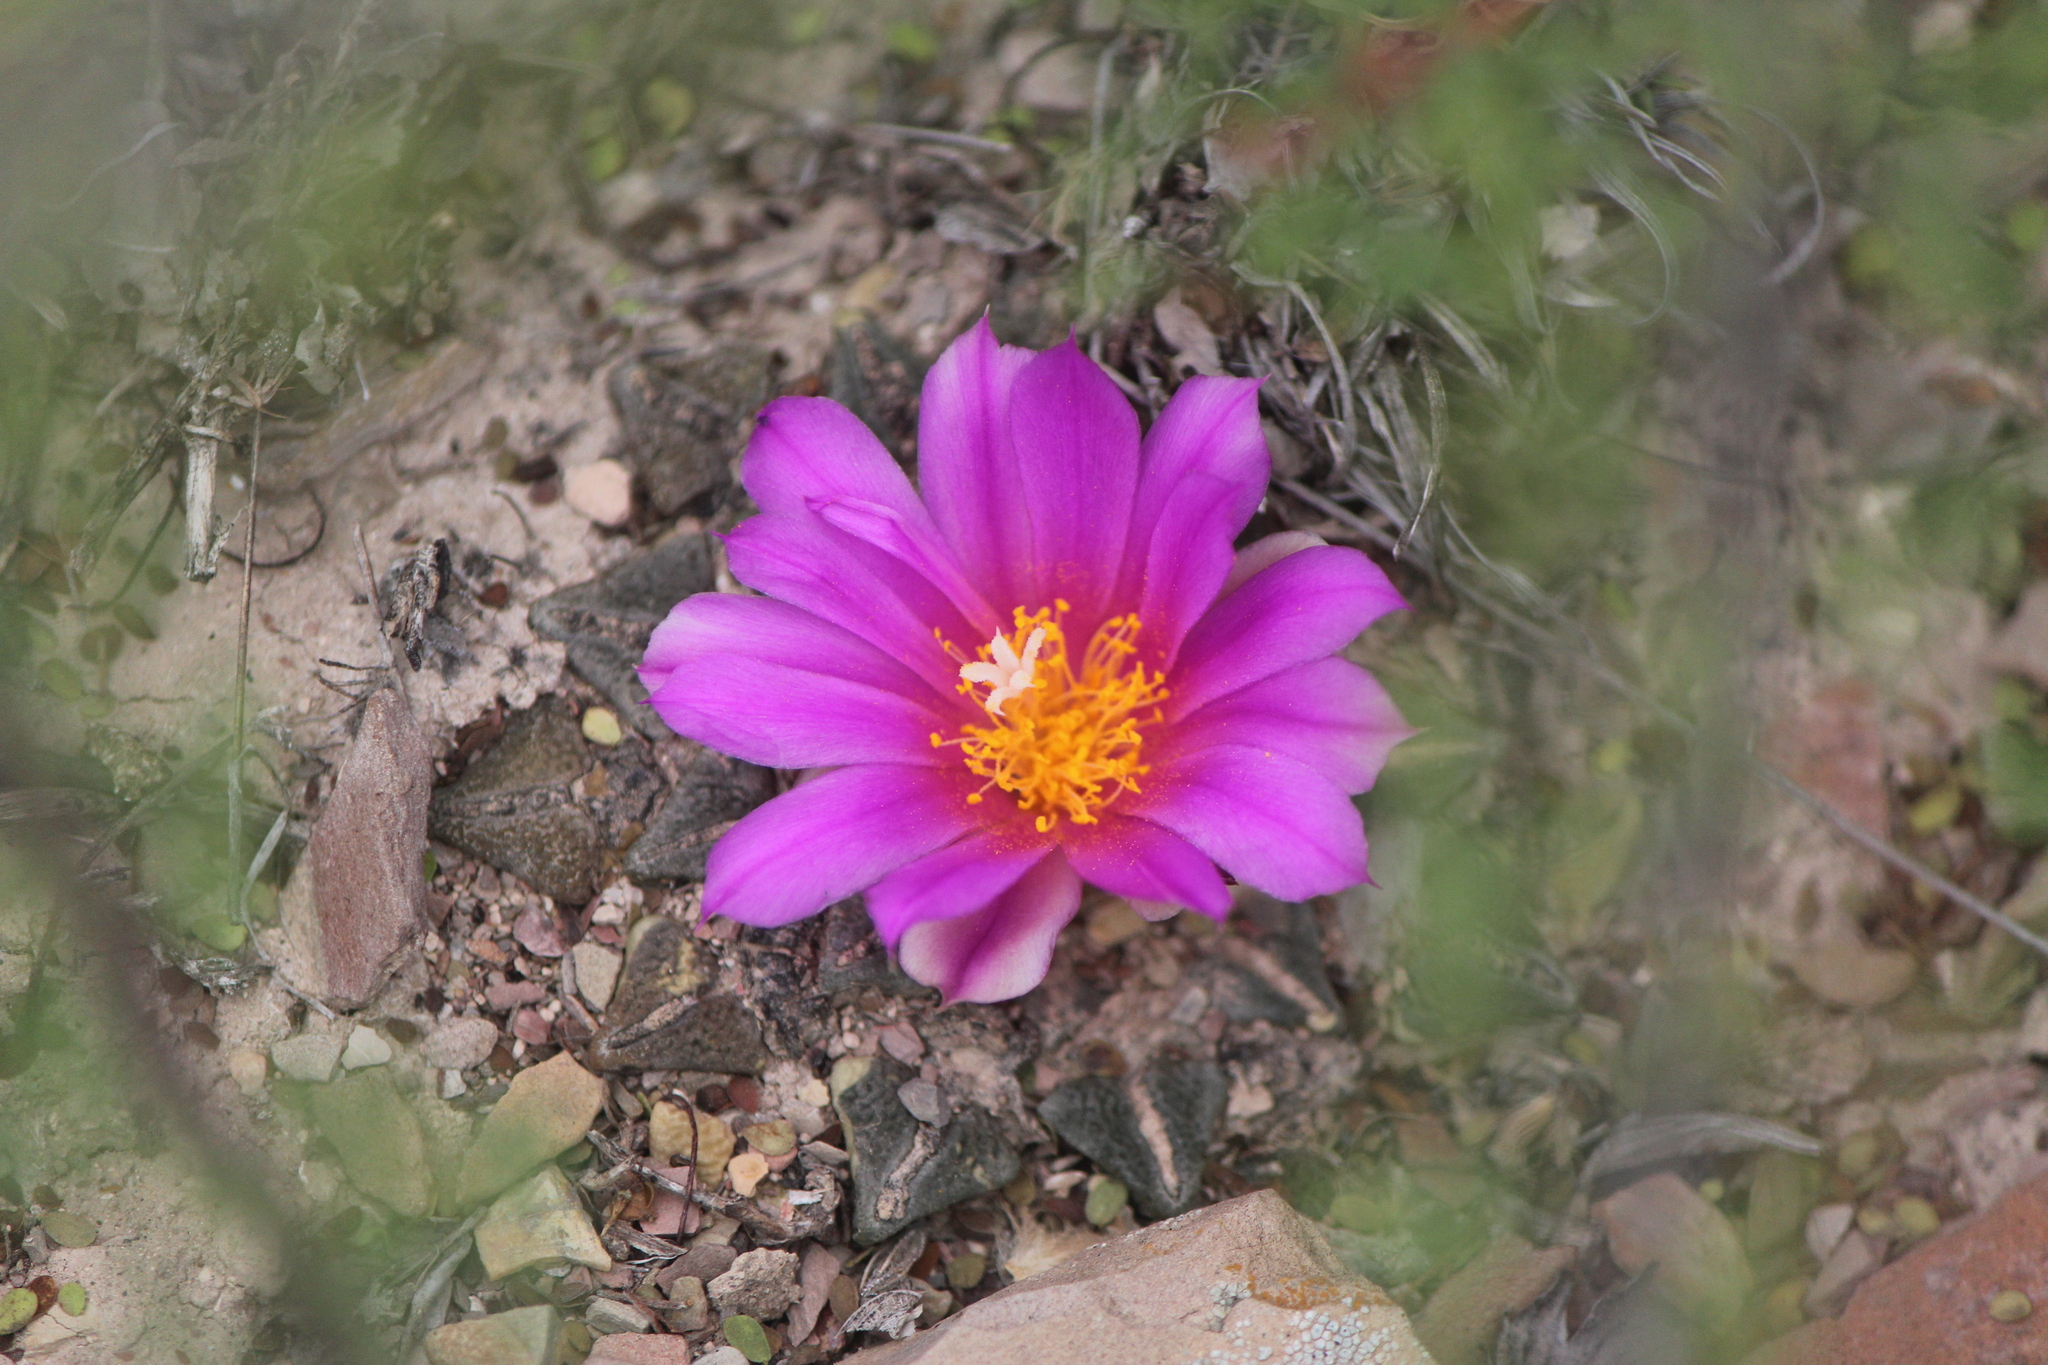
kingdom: Plantae
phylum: Tracheophyta
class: Magnoliopsida
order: Caryophyllales
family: Cactaceae
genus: Ariocarpus
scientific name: Ariocarpus kotschoubeyanus
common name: Living-rock
